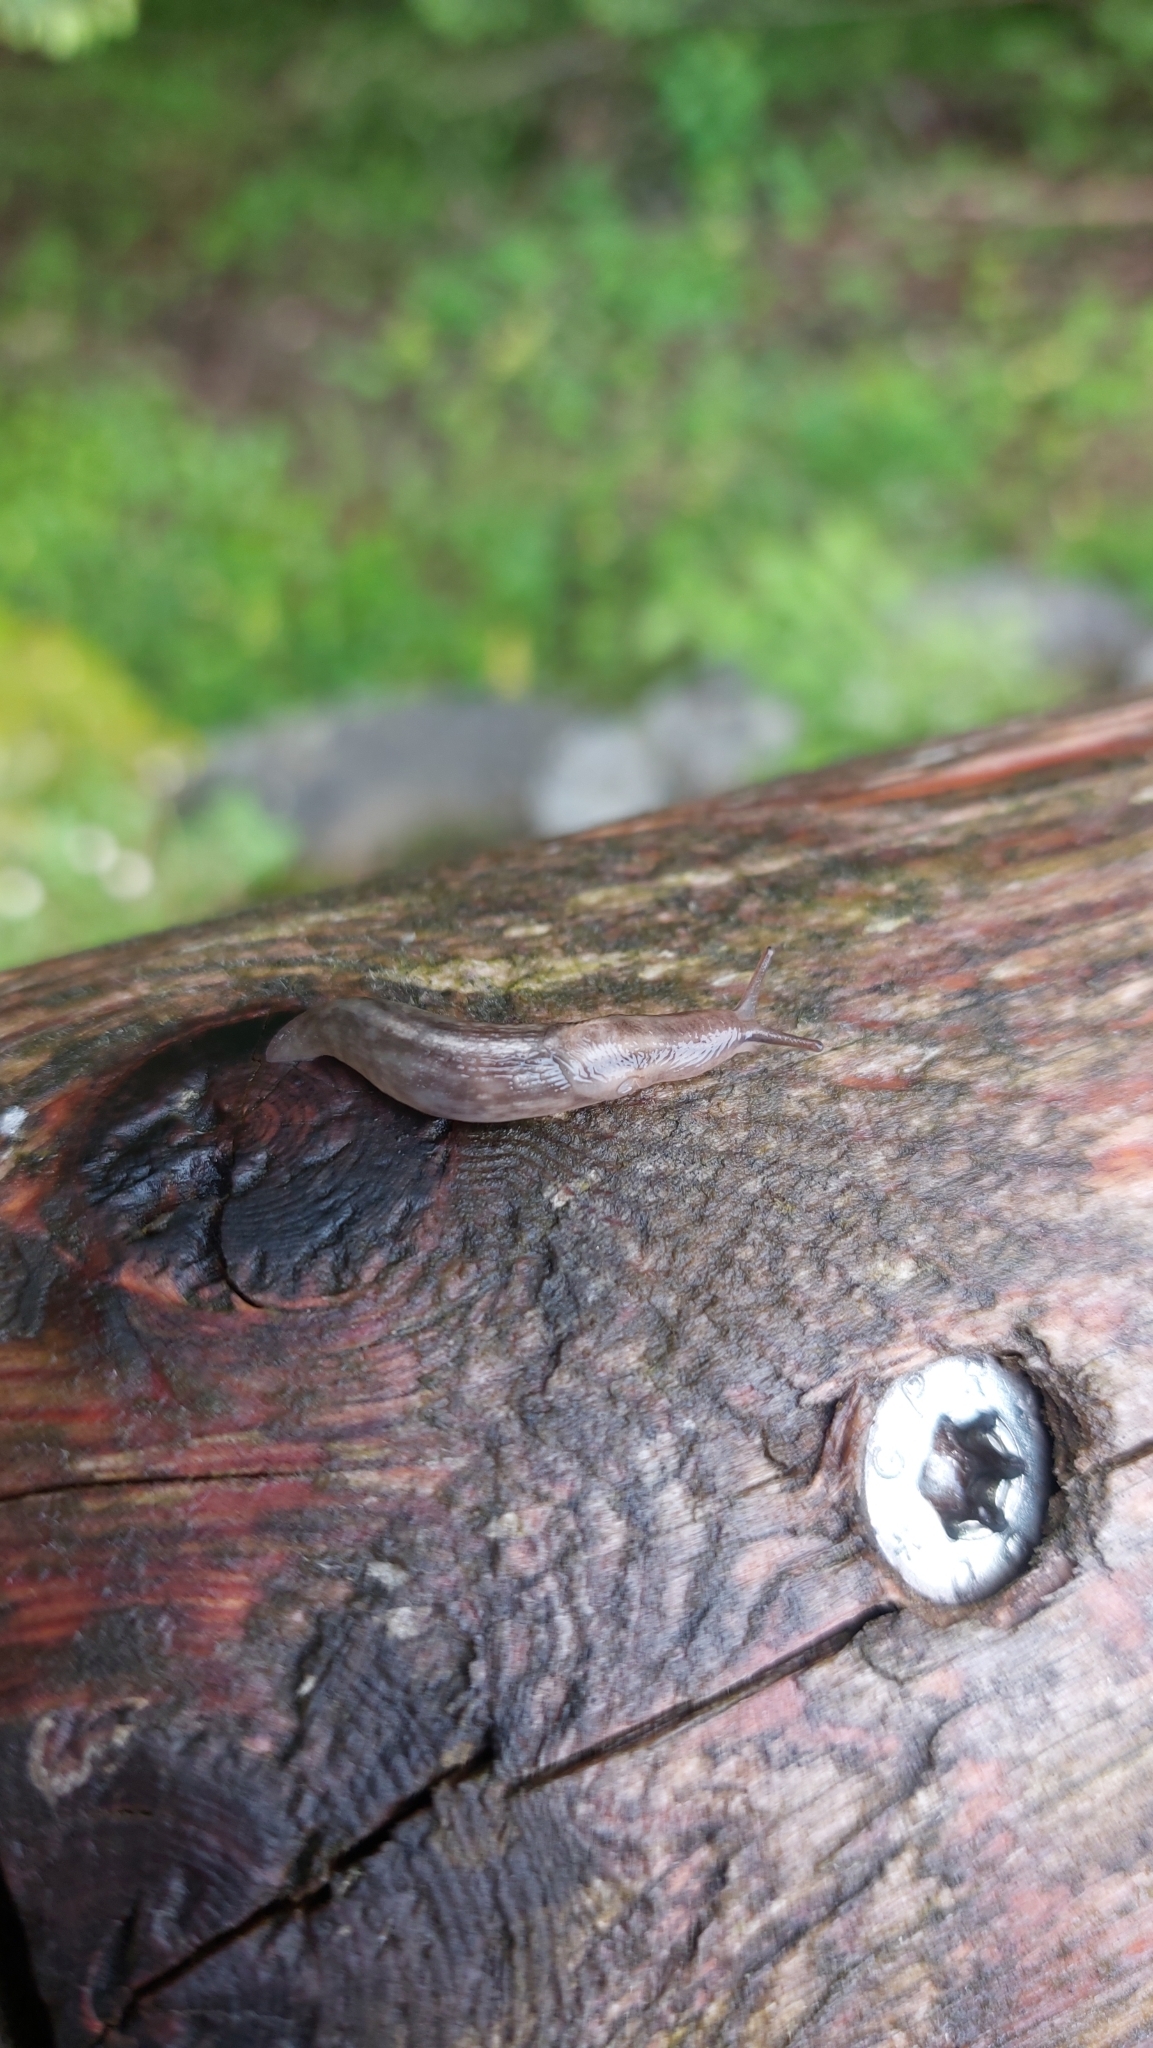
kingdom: Animalia
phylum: Mollusca
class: Gastropoda
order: Stylommatophora
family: Limacidae
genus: Lehmannia
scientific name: Lehmannia marginata
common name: Tree slug
